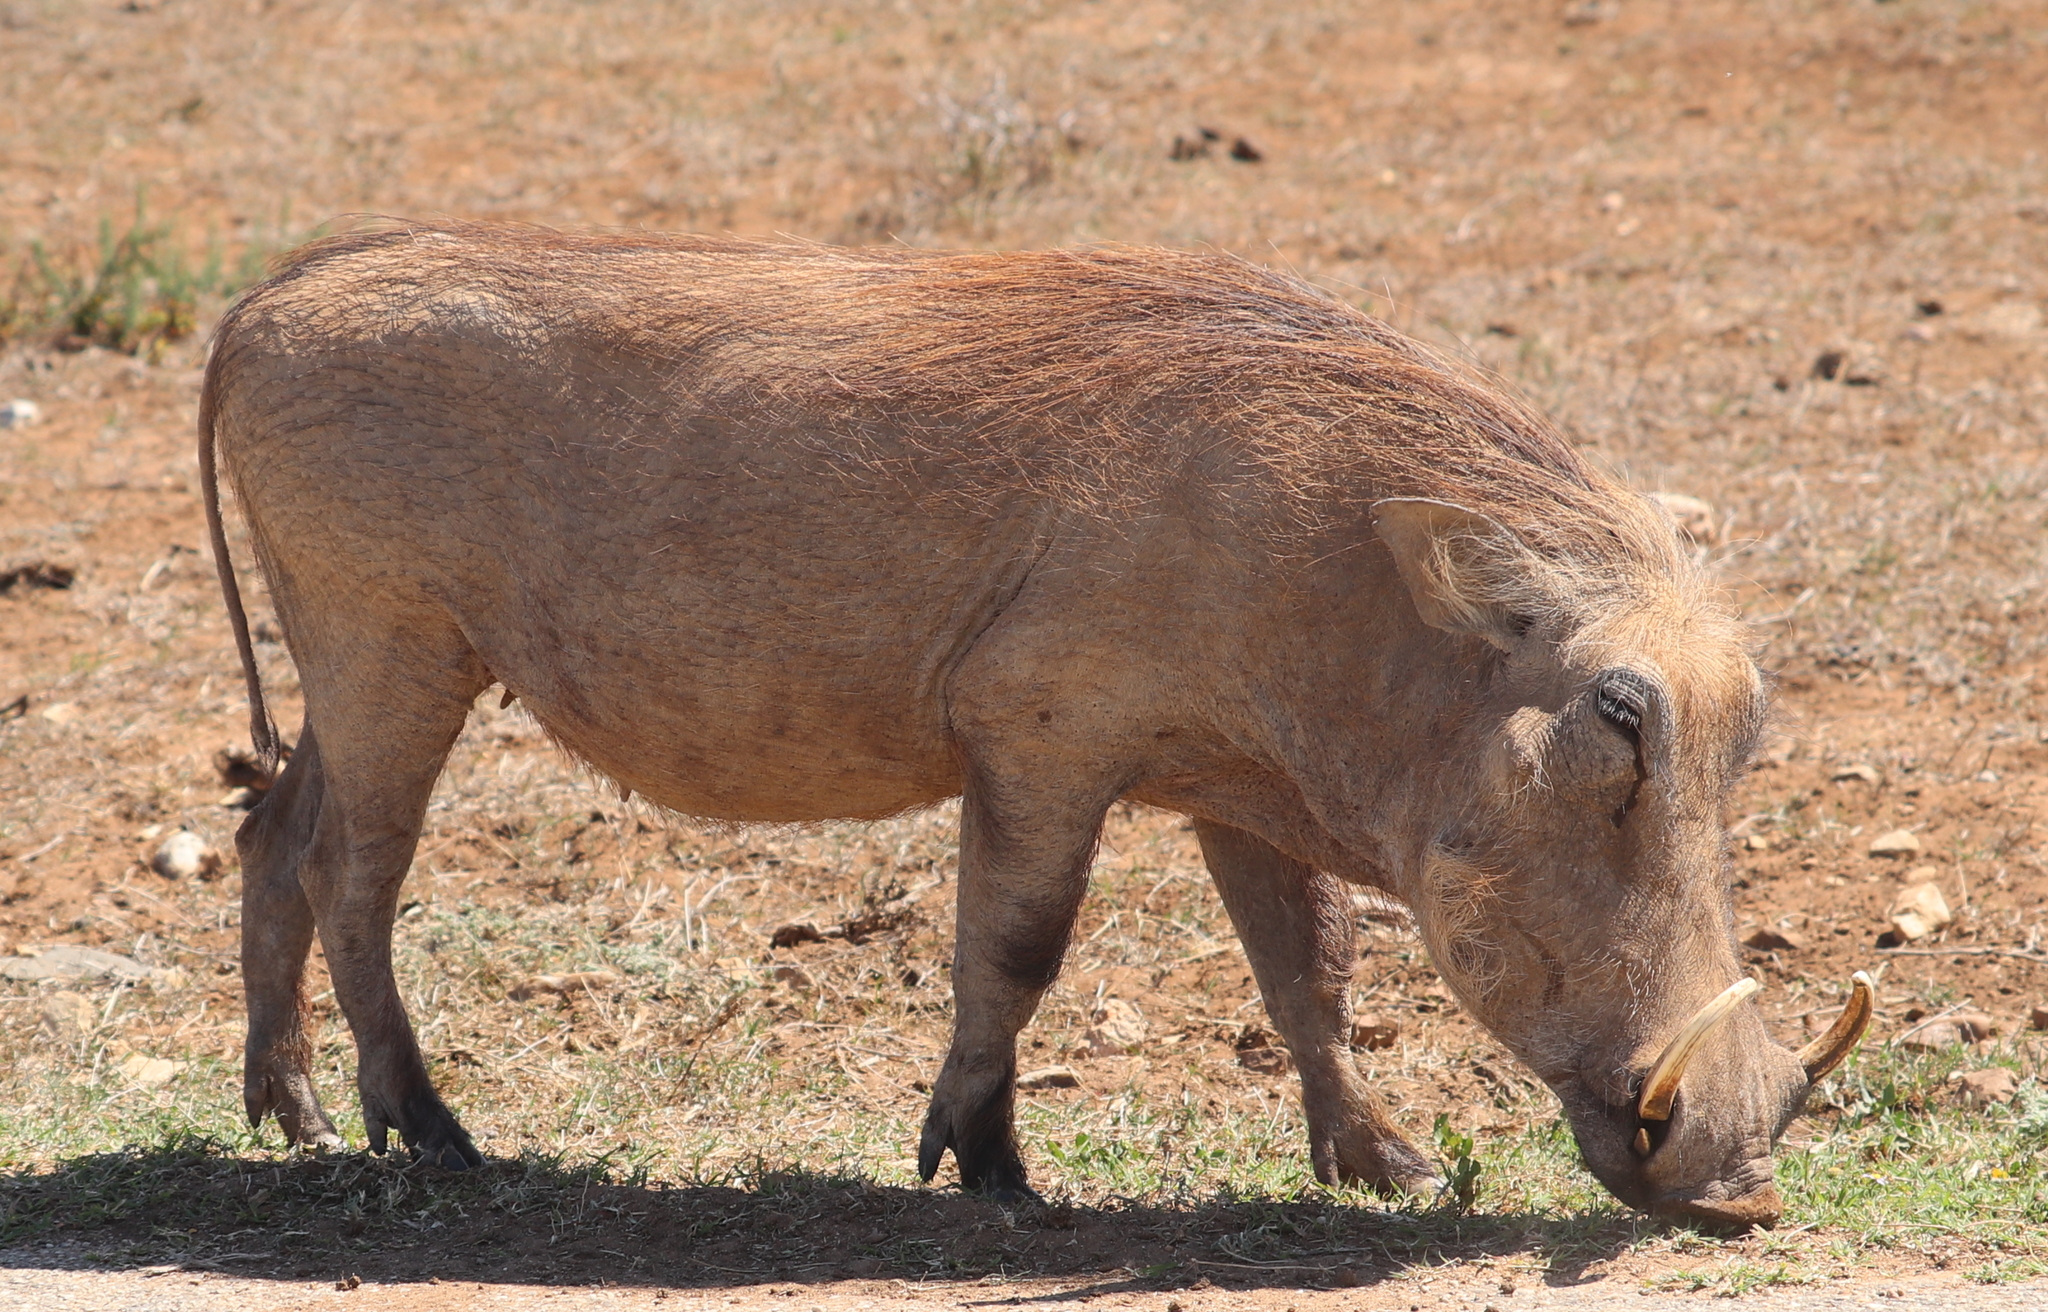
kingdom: Animalia
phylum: Chordata
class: Mammalia
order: Artiodactyla
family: Suidae
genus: Phacochoerus
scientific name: Phacochoerus africanus
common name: Common warthog
